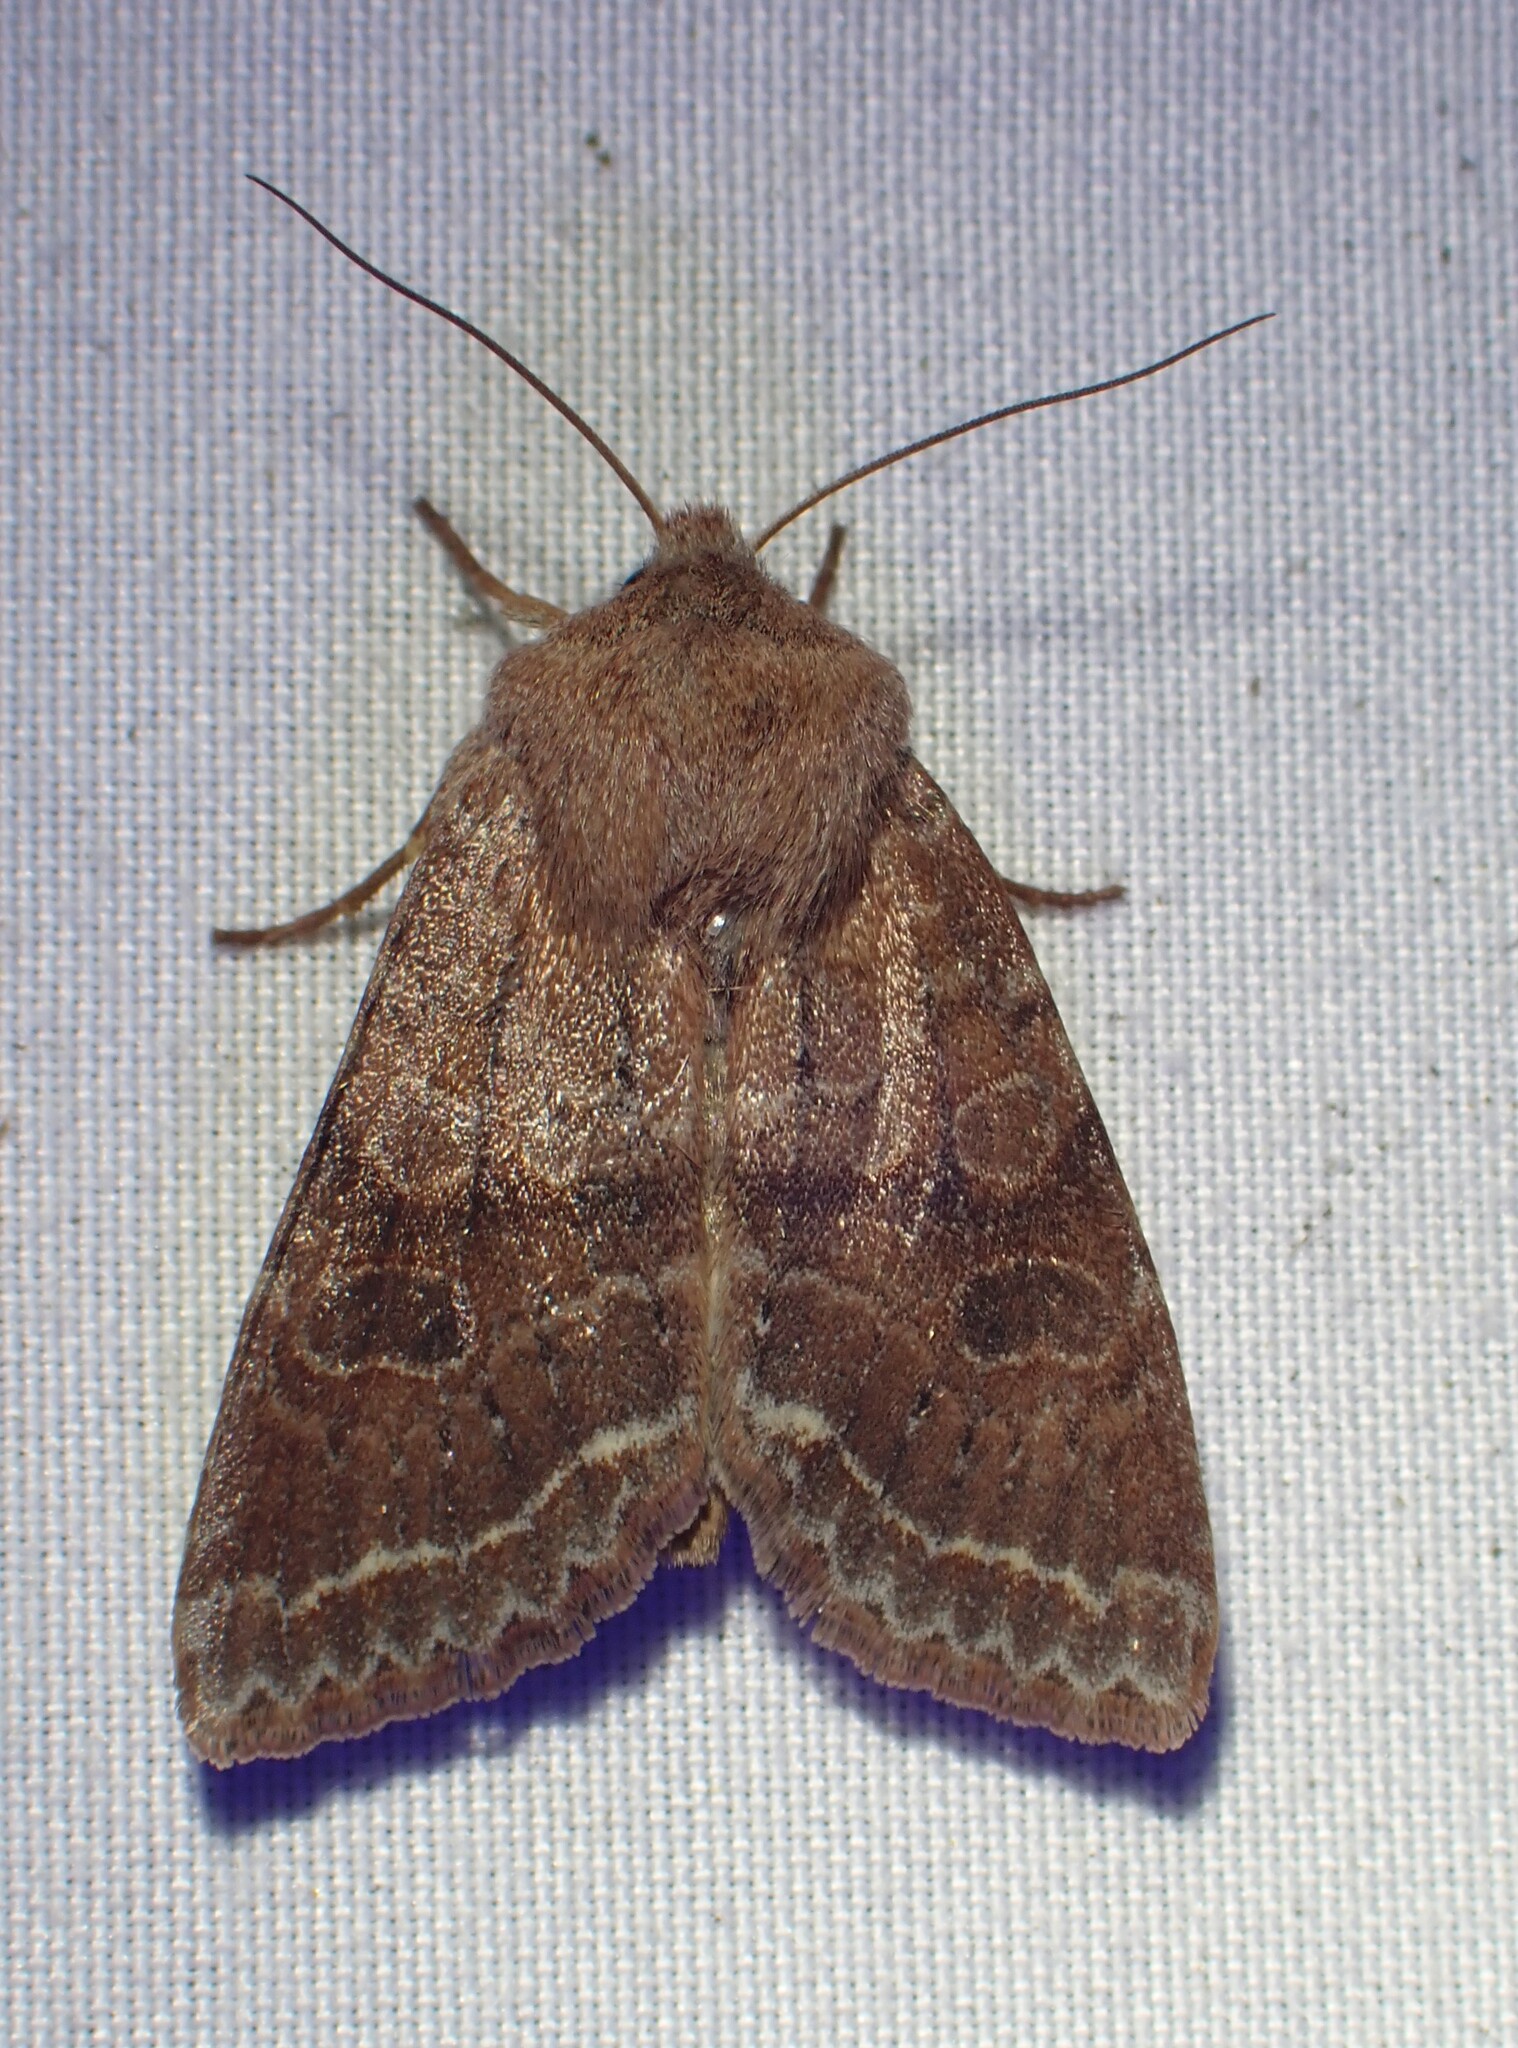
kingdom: Animalia
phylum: Arthropoda
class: Insecta
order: Lepidoptera
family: Noctuidae
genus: Orthosia
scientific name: Orthosia revicta
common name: Rusty whitesided caterpillar
